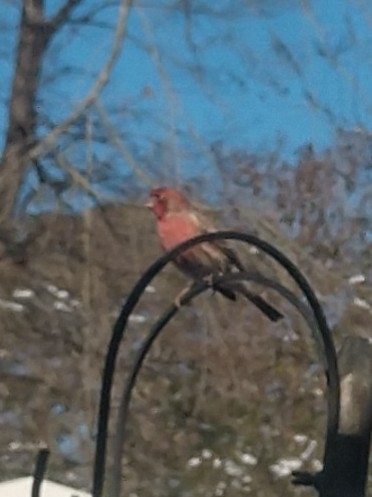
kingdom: Animalia
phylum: Chordata
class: Aves
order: Passeriformes
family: Fringillidae
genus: Haemorhous
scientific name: Haemorhous mexicanus
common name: House finch
